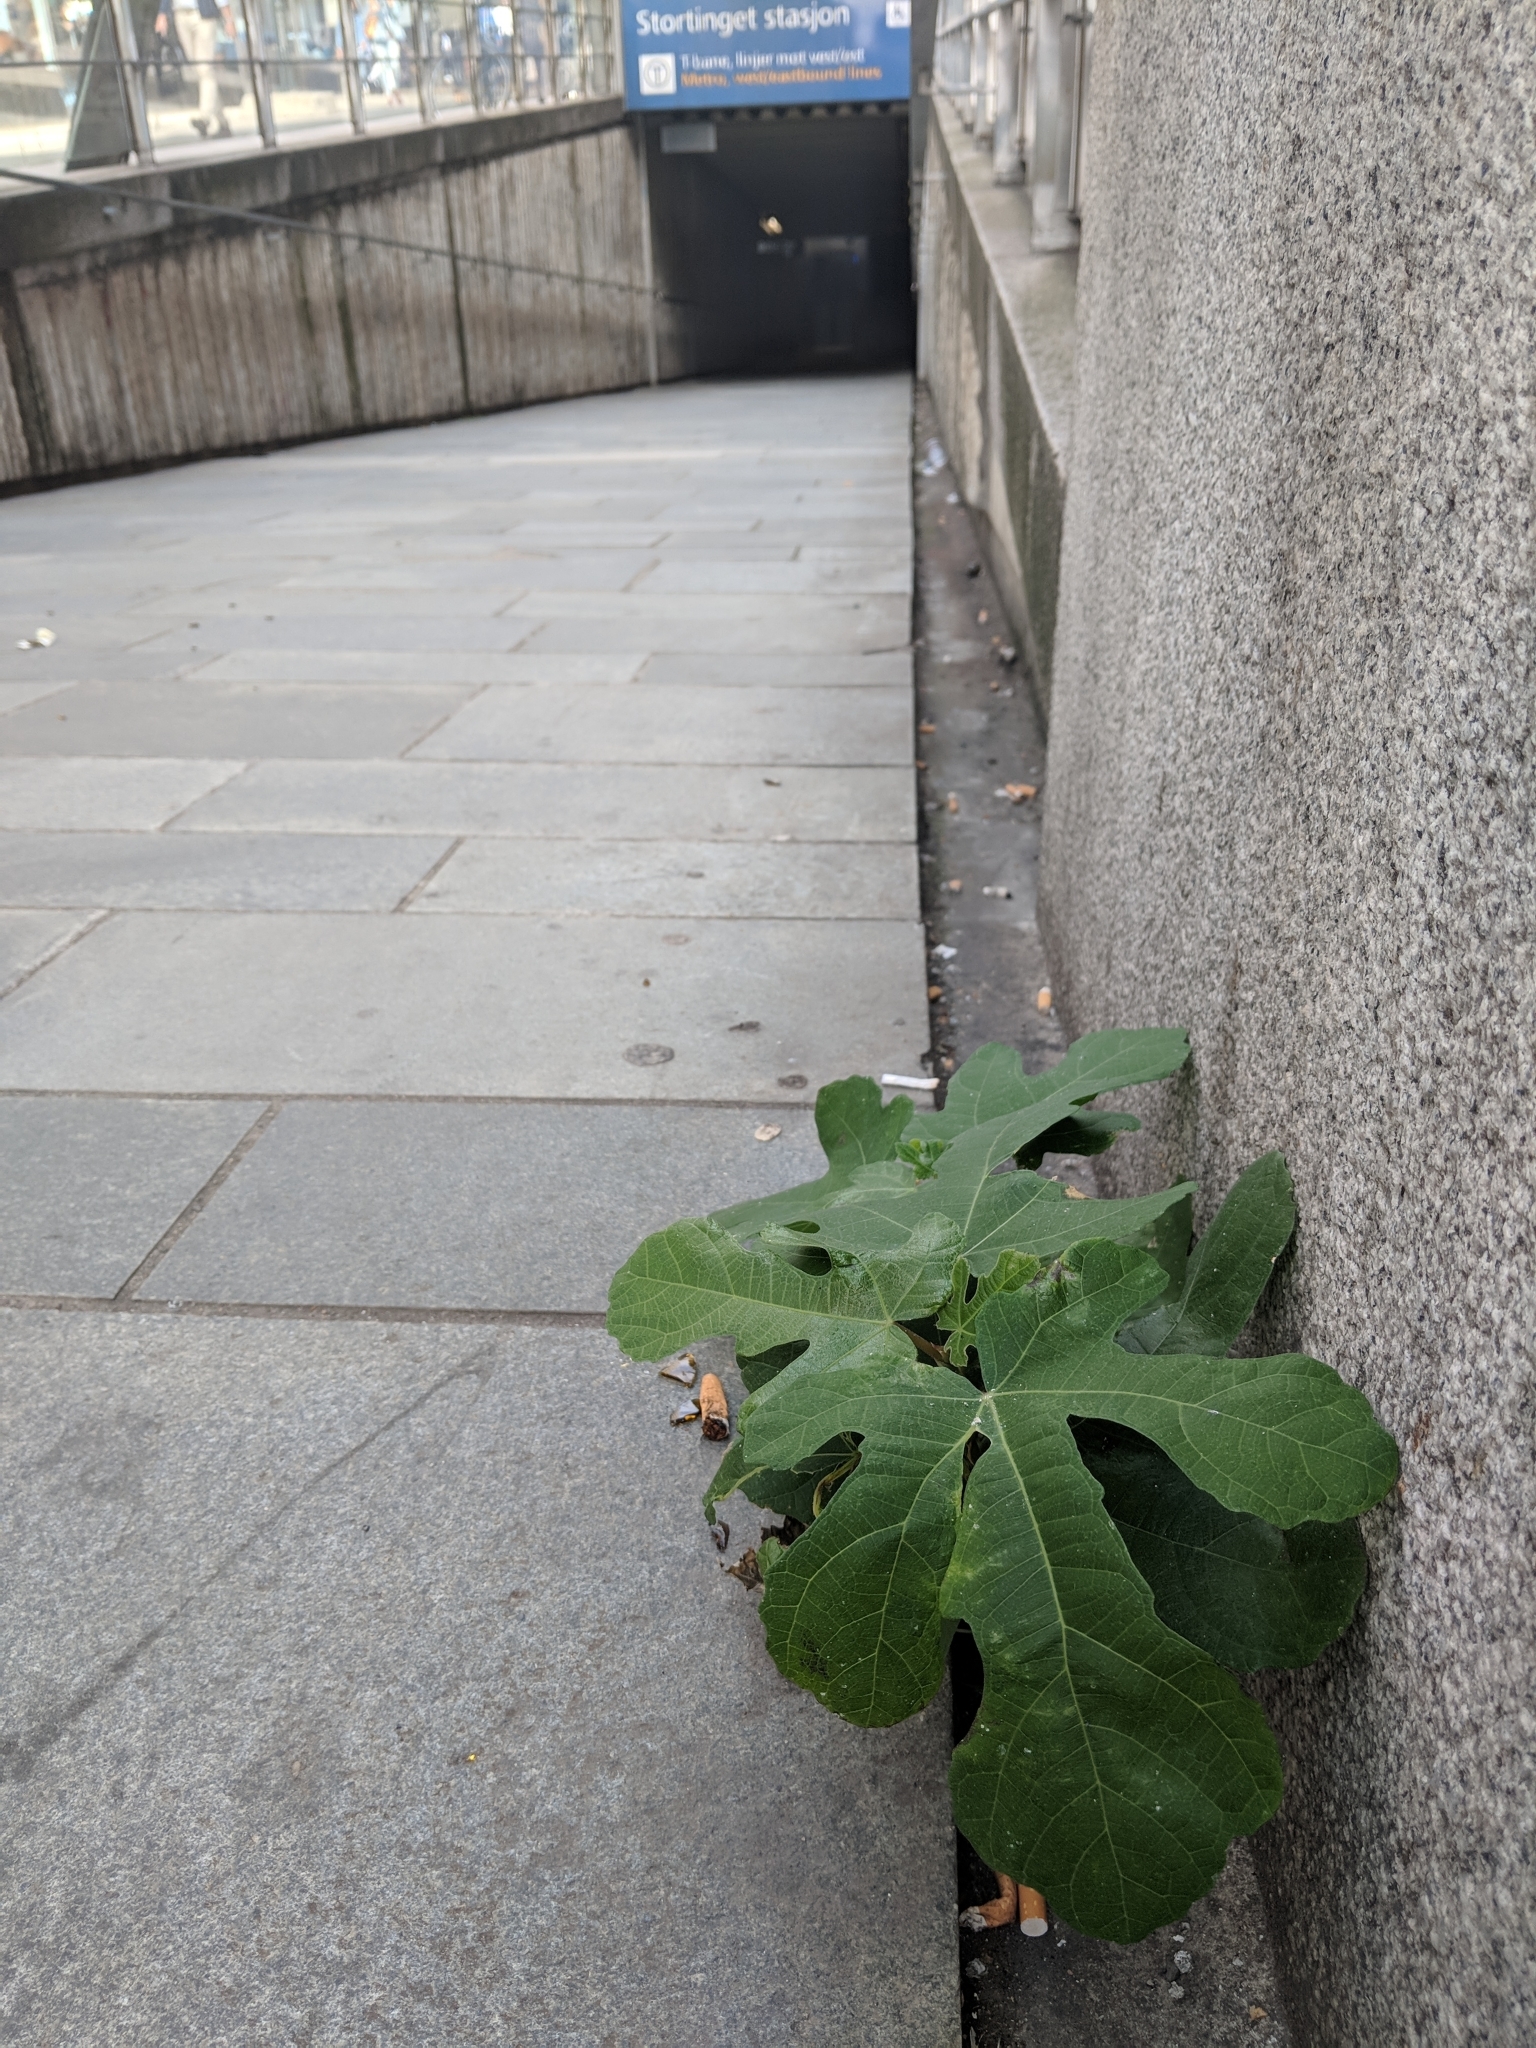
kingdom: Plantae
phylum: Tracheophyta
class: Magnoliopsida
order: Rosales
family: Moraceae
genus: Ficus
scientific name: Ficus carica
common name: Fig
